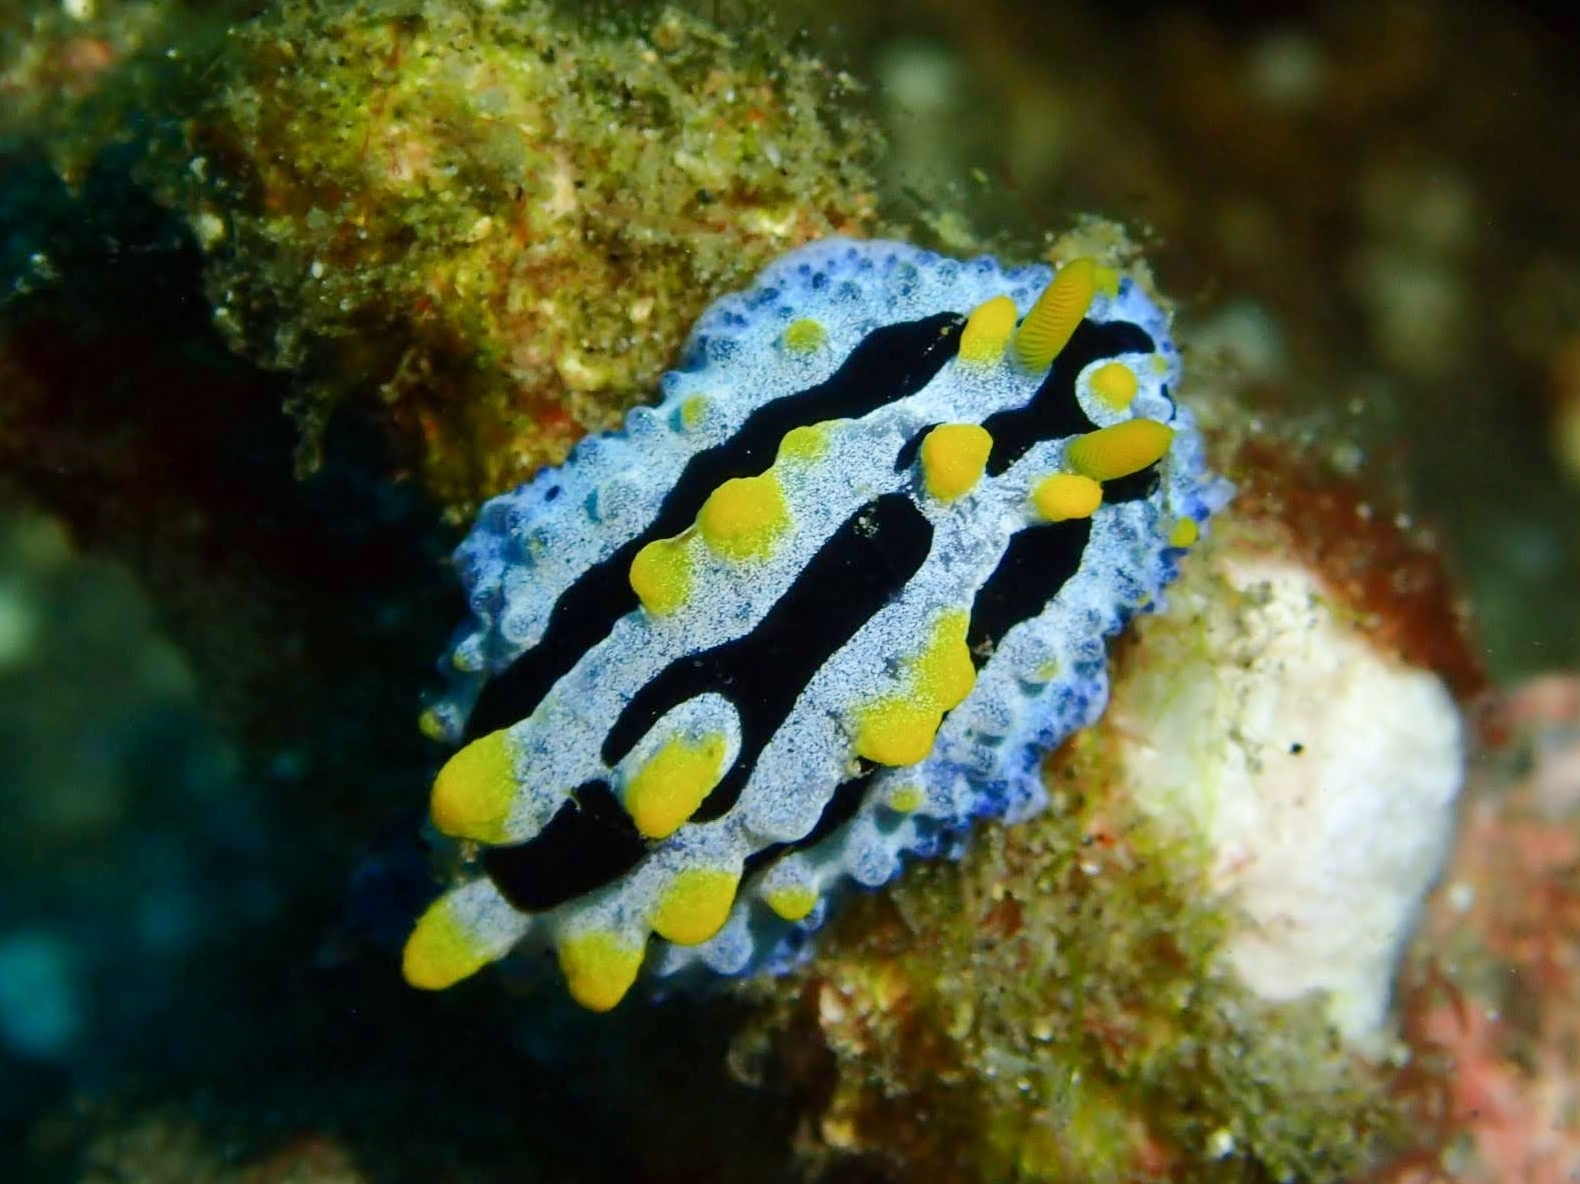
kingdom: Animalia
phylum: Mollusca
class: Gastropoda
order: Nudibranchia
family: Phyllidiidae
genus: Phyllidia
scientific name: Phyllidia coelestis
